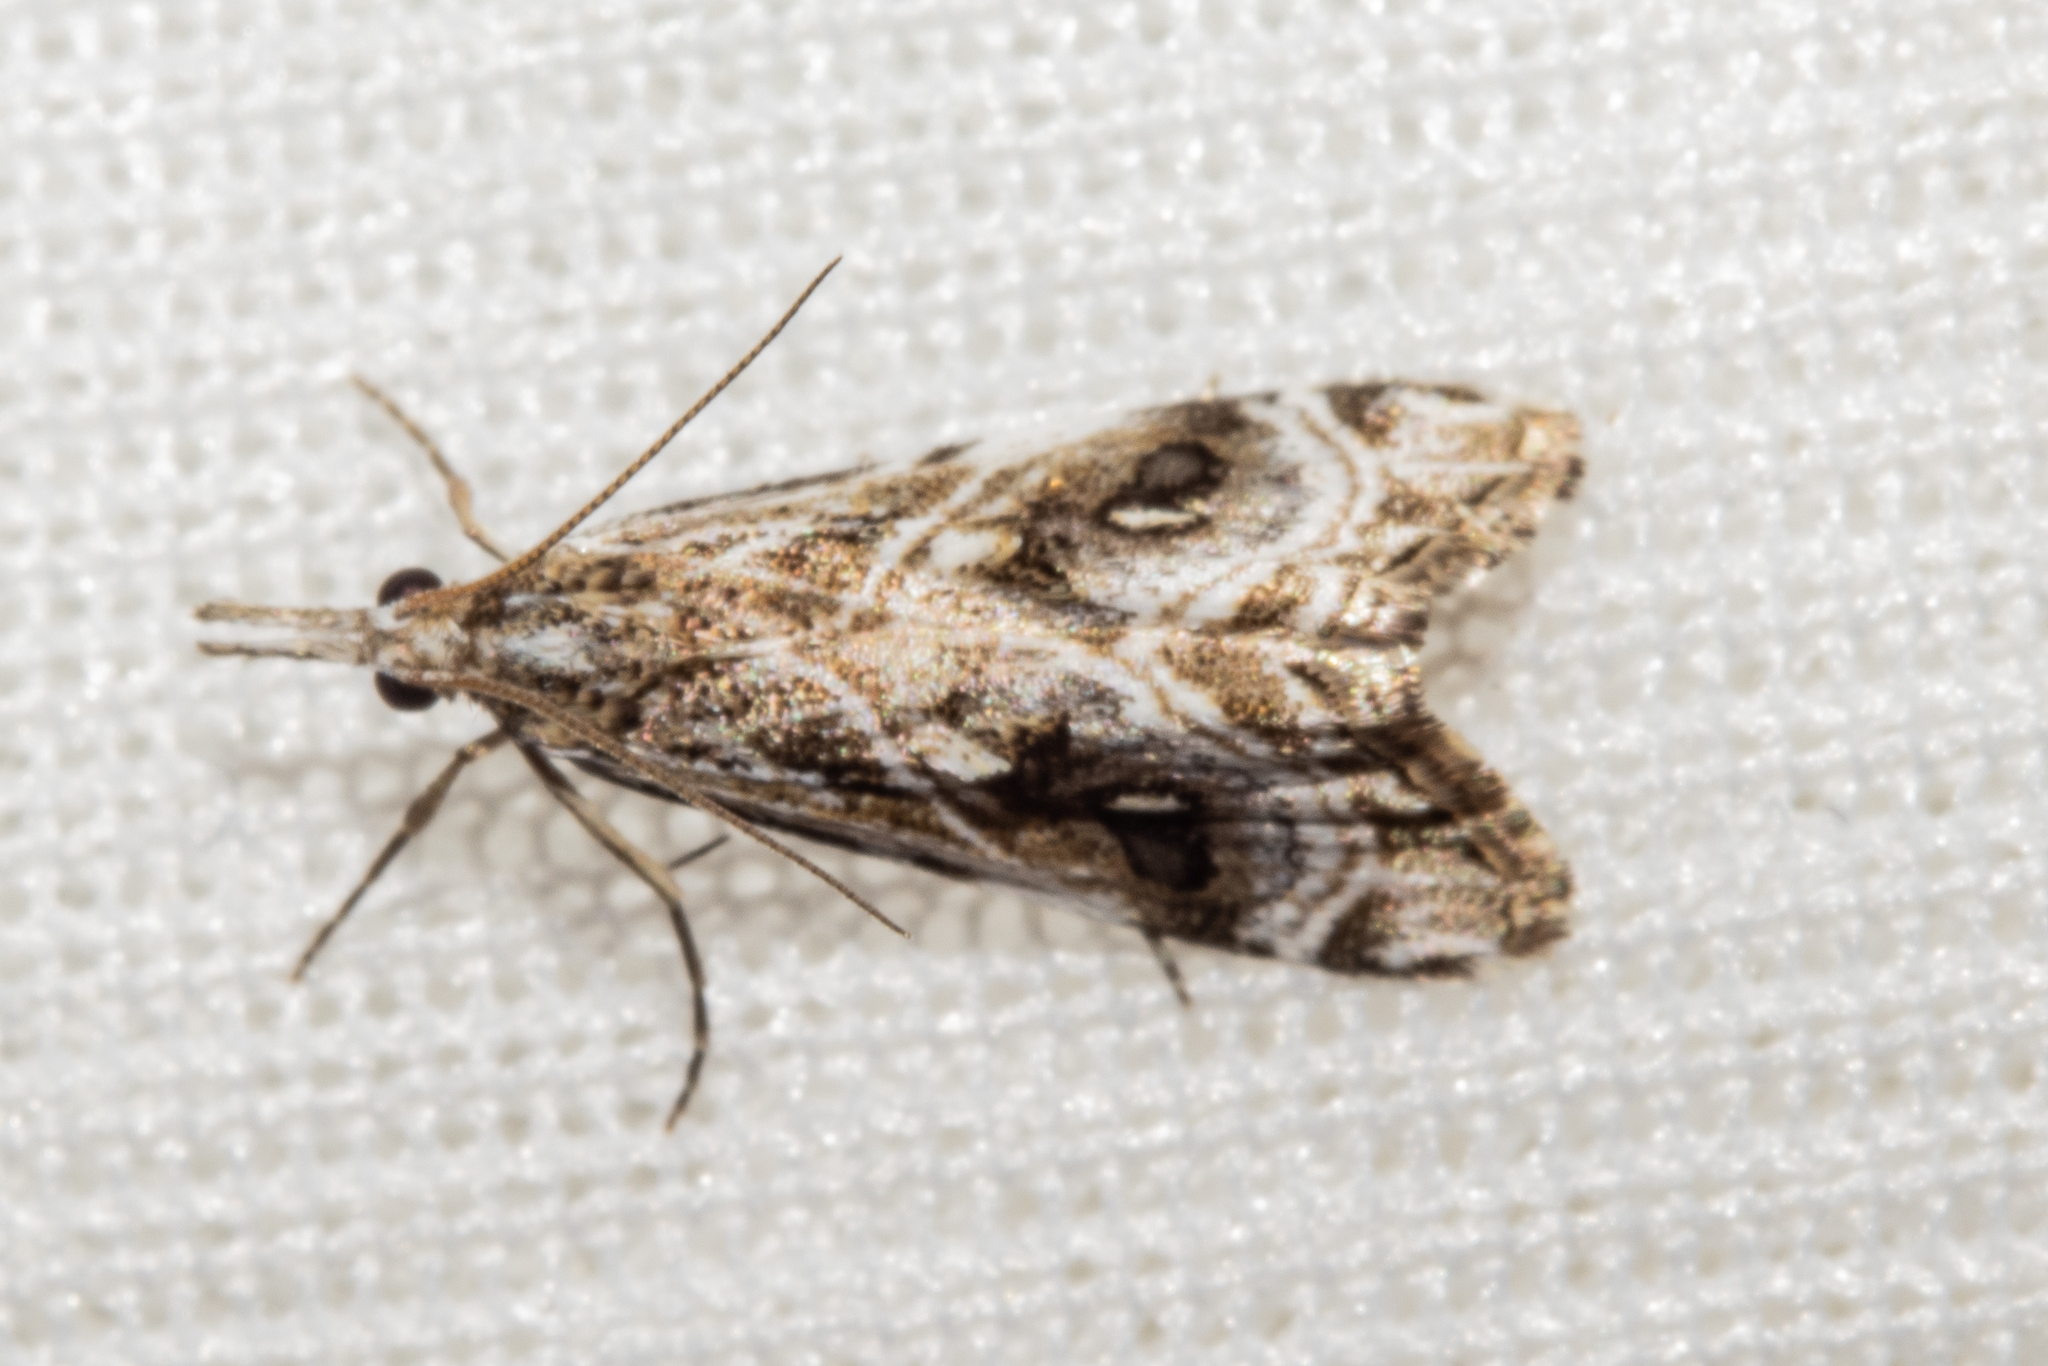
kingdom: Animalia
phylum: Arthropoda
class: Insecta
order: Lepidoptera
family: Crambidae
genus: Gadira
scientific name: Gadira acerella
